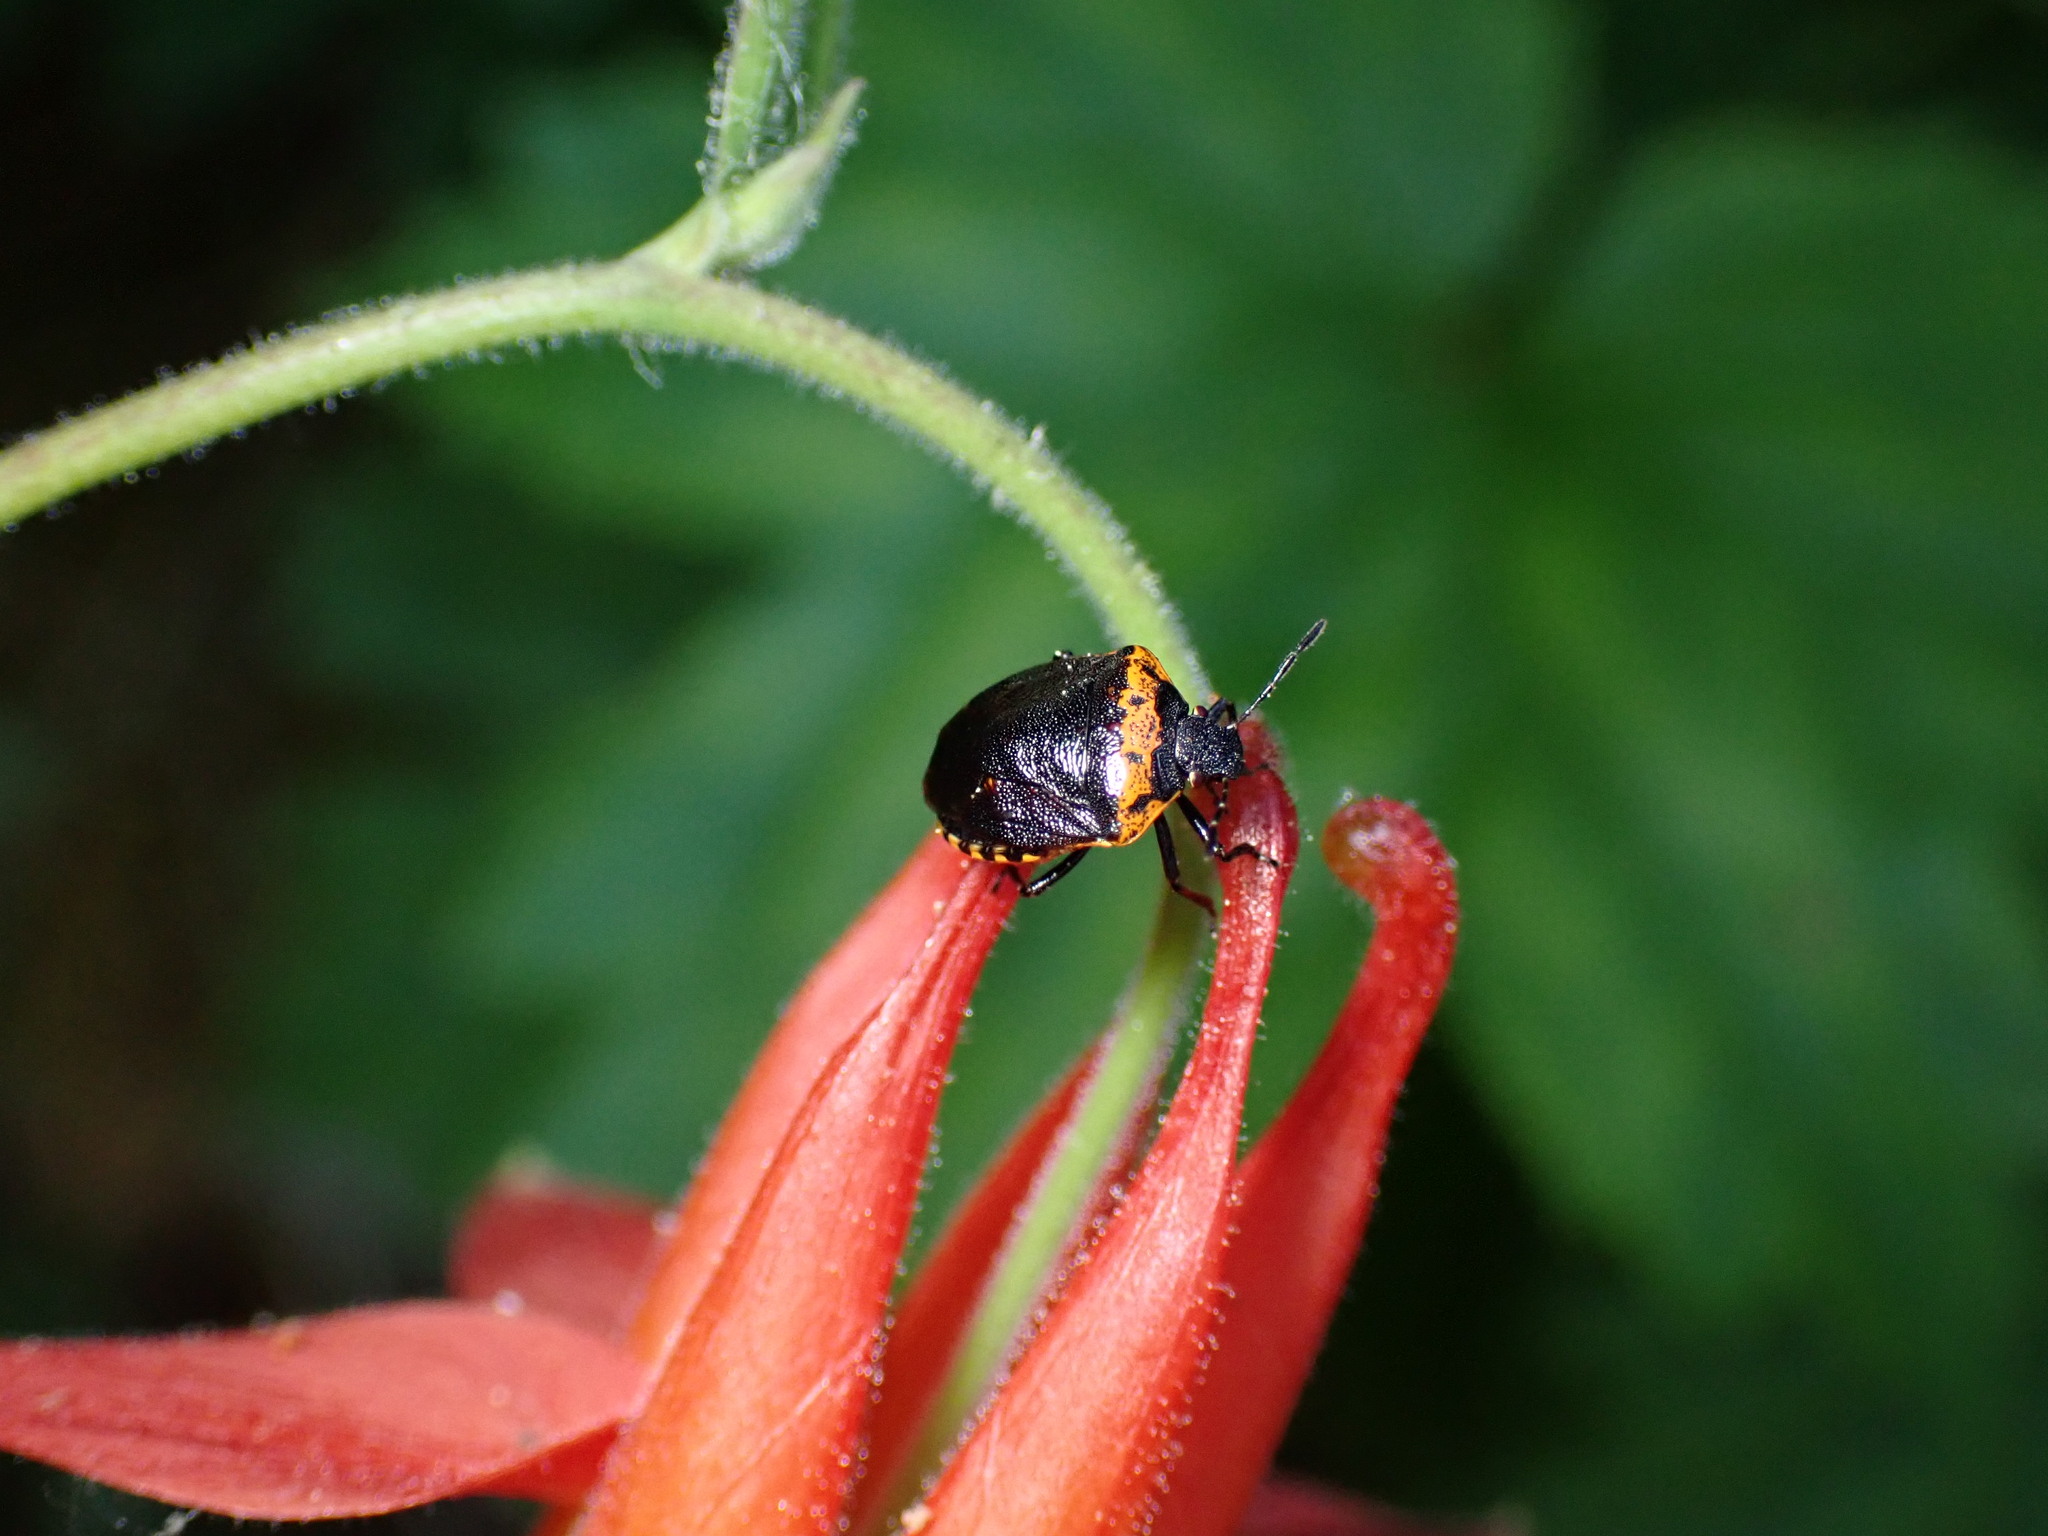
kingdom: Animalia
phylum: Arthropoda
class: Insecta
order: Hemiptera
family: Pentatomidae
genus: Cosmopepla
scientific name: Cosmopepla uhleri
